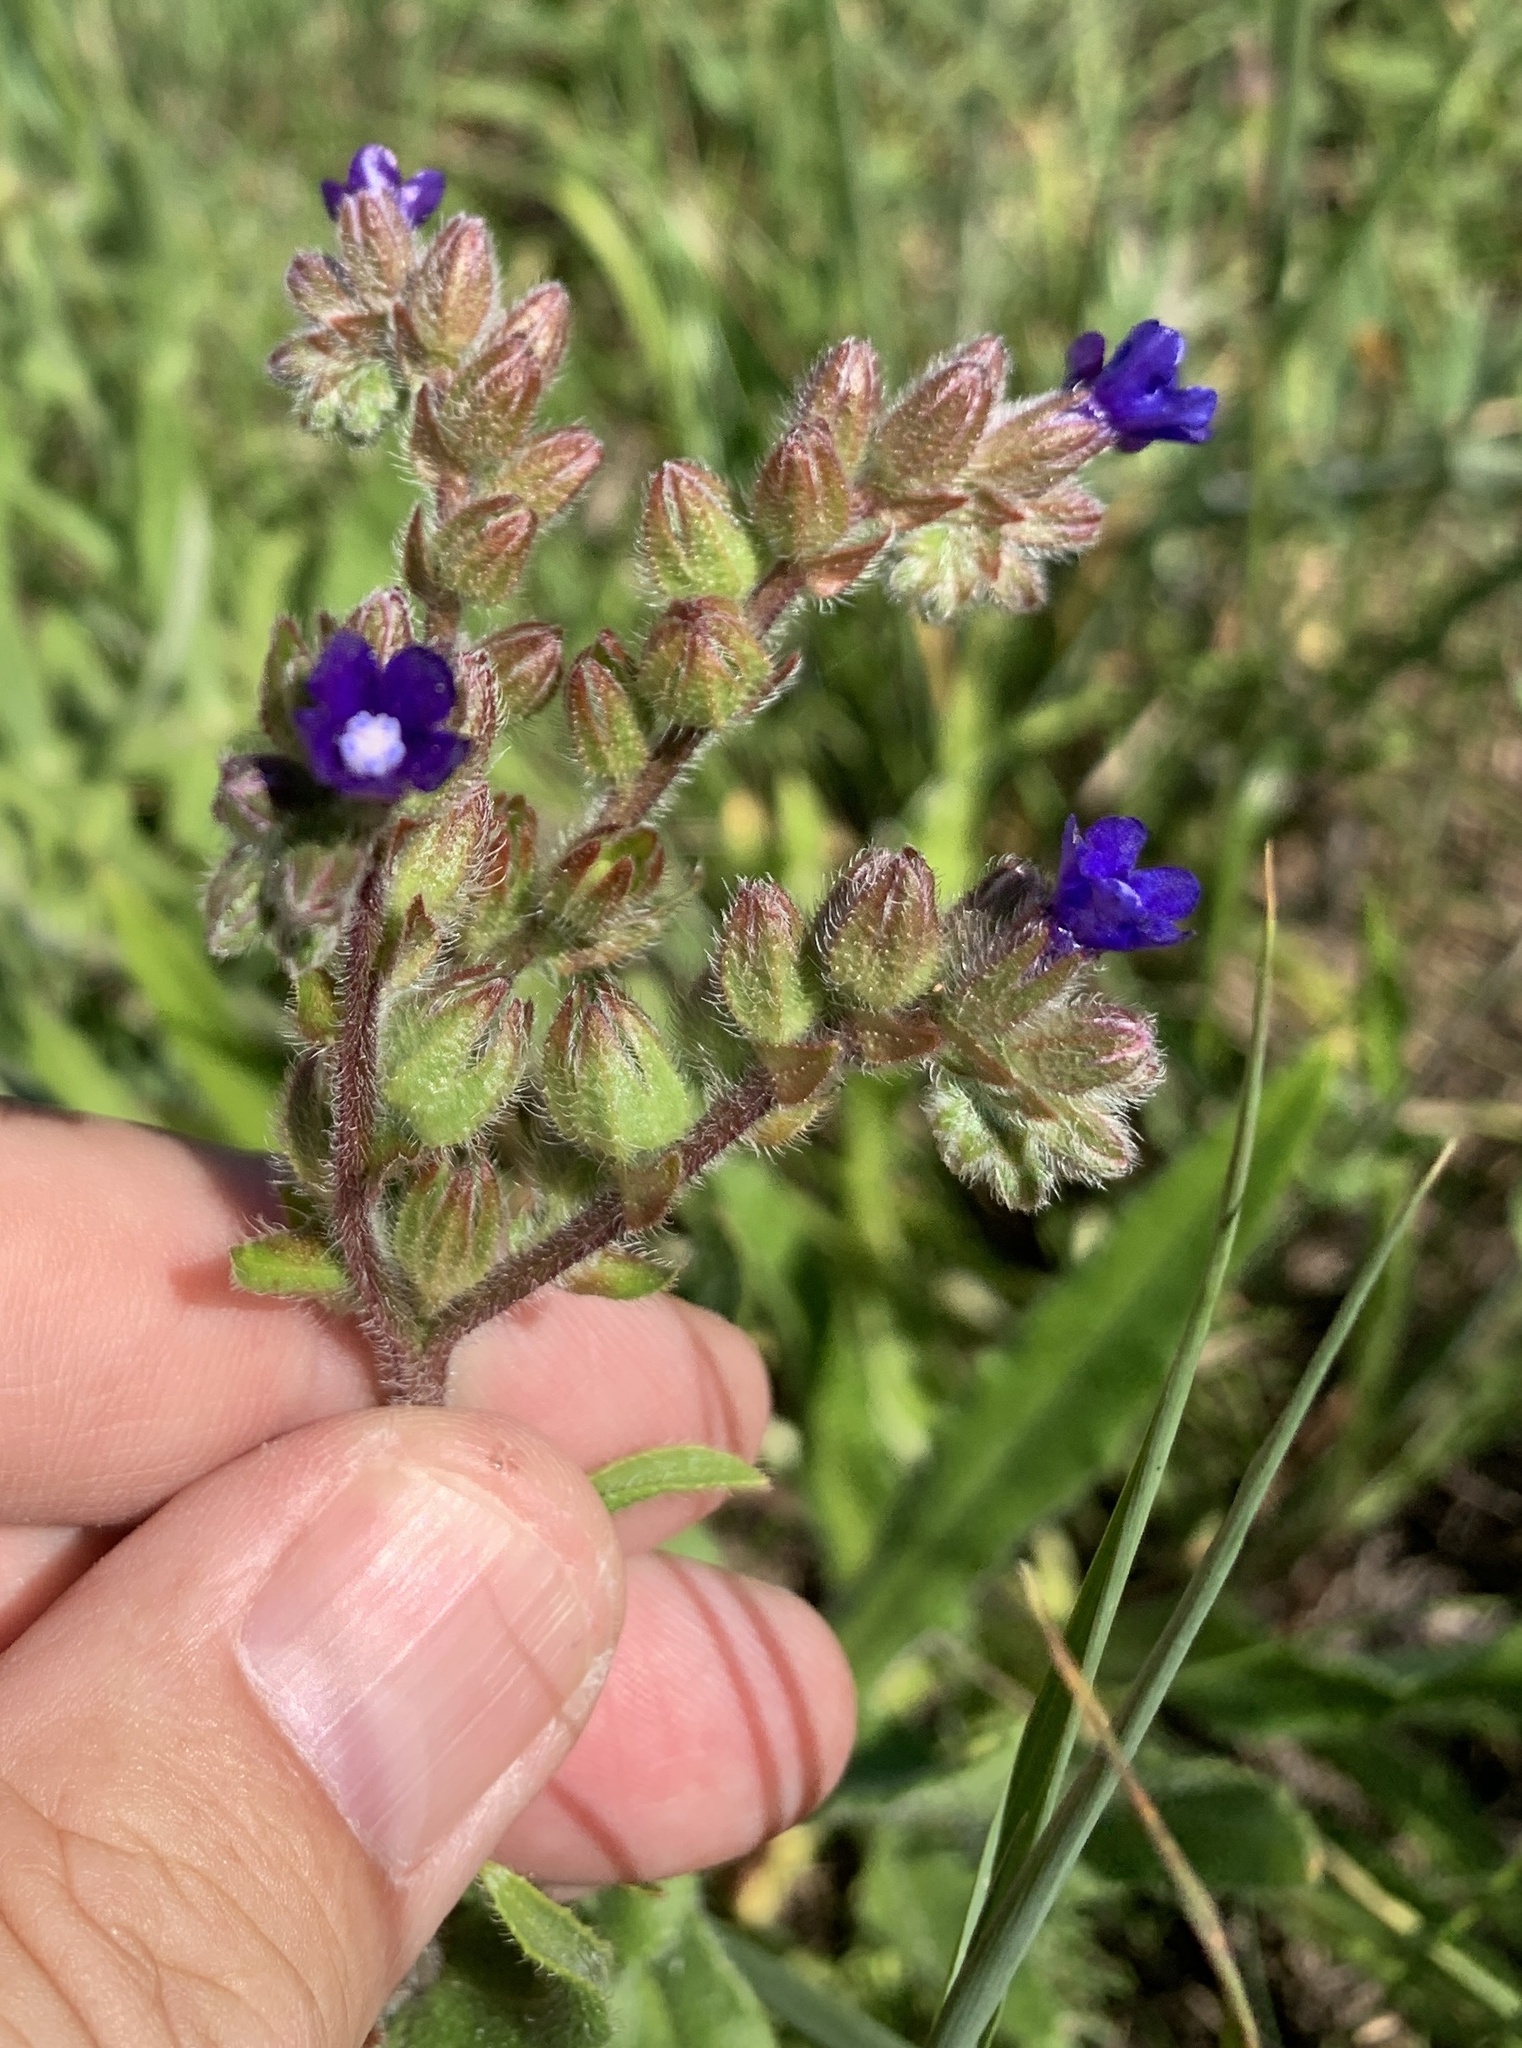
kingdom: Plantae
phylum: Tracheophyta
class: Magnoliopsida
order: Boraginales
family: Boraginaceae
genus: Anchusa
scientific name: Anchusa officinalis
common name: Alkanet
